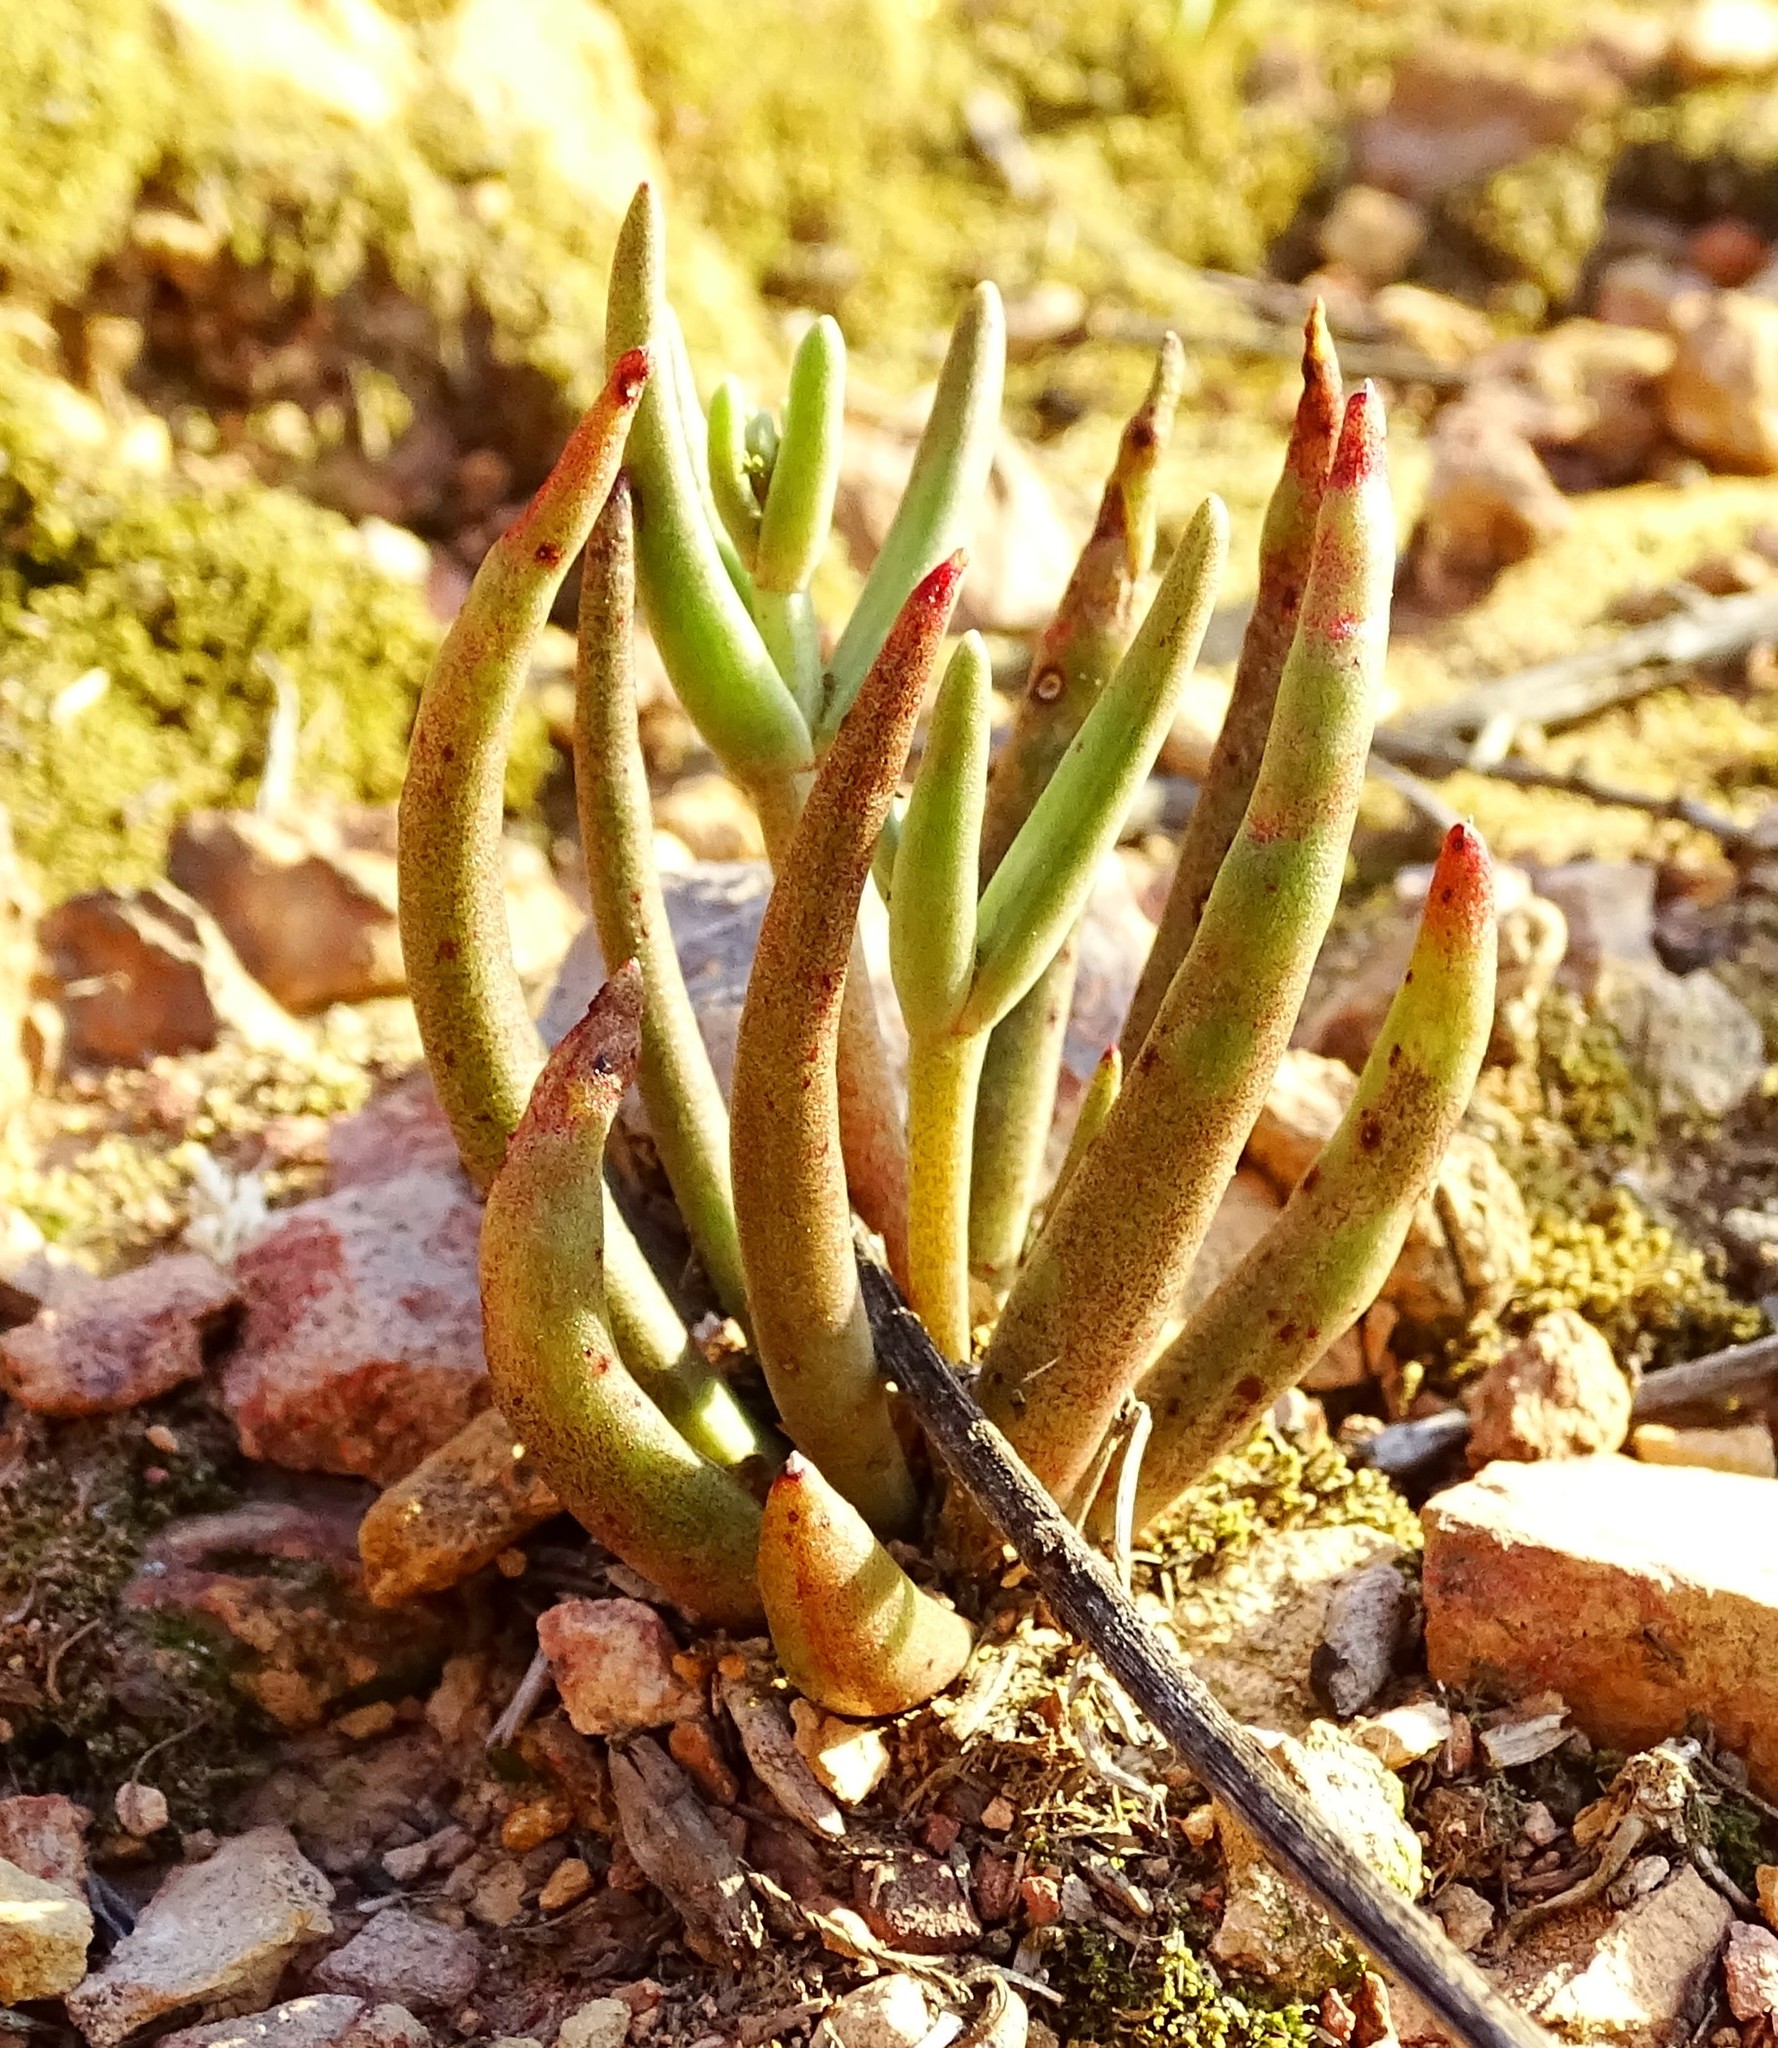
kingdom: Plantae
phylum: Tracheophyta
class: Magnoliopsida
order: Saxifragales
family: Crassulaceae
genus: Dudleya
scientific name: Dudleya multicaulis
